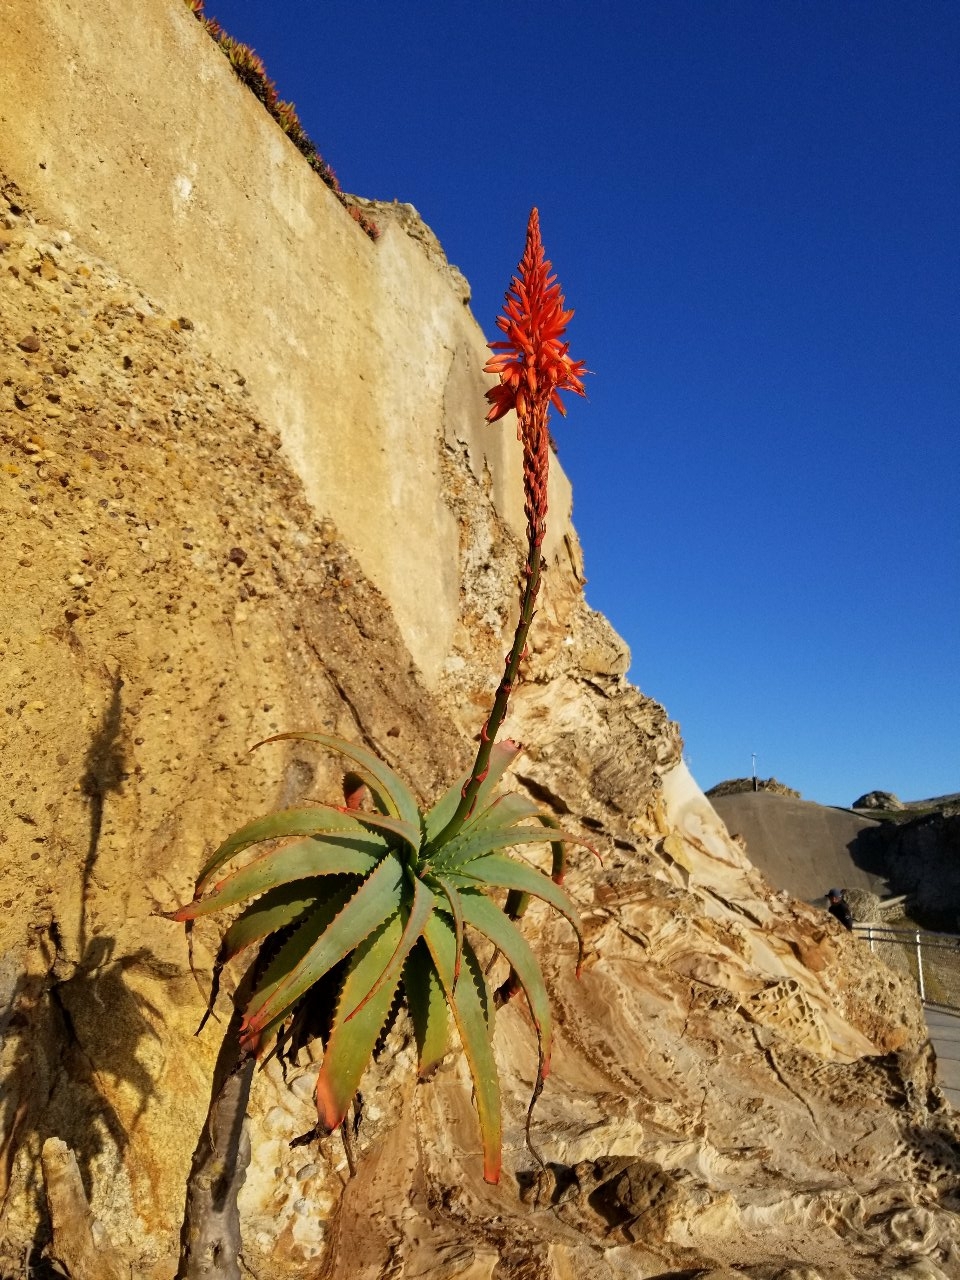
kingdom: Plantae
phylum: Tracheophyta
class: Liliopsida
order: Asparagales
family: Asphodelaceae
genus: Aloe
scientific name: Aloe arborescens
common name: Candelabra aloe
